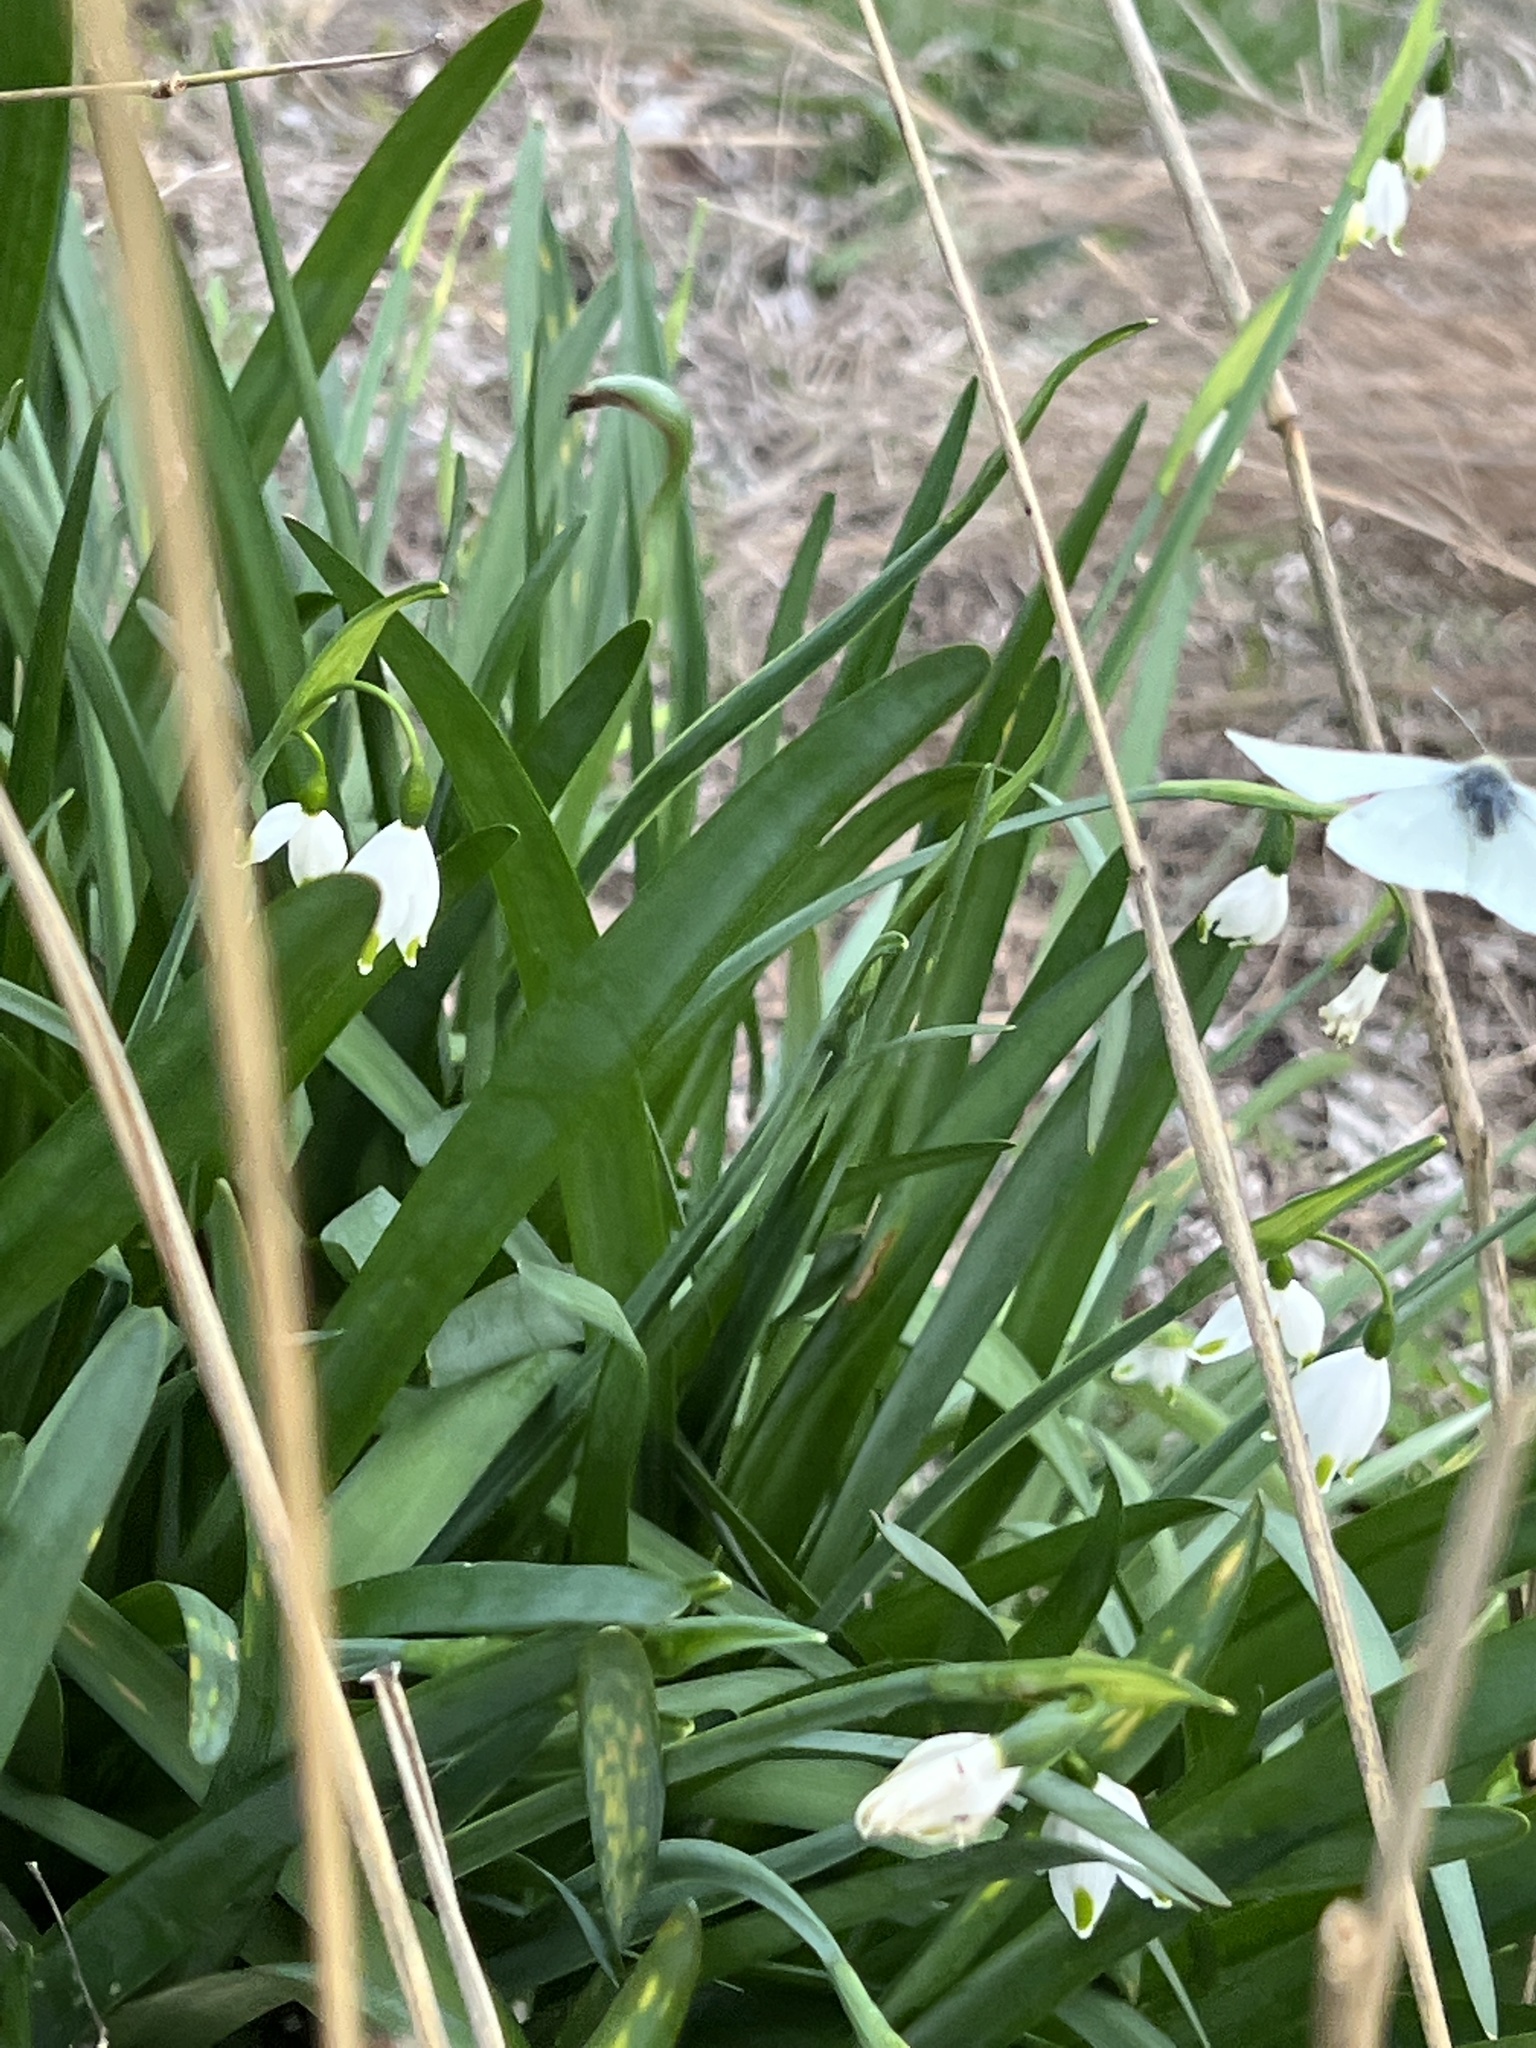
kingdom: Animalia
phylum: Arthropoda
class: Insecta
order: Lepidoptera
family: Pieridae
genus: Pieris
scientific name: Pieris rapae
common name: Small white
